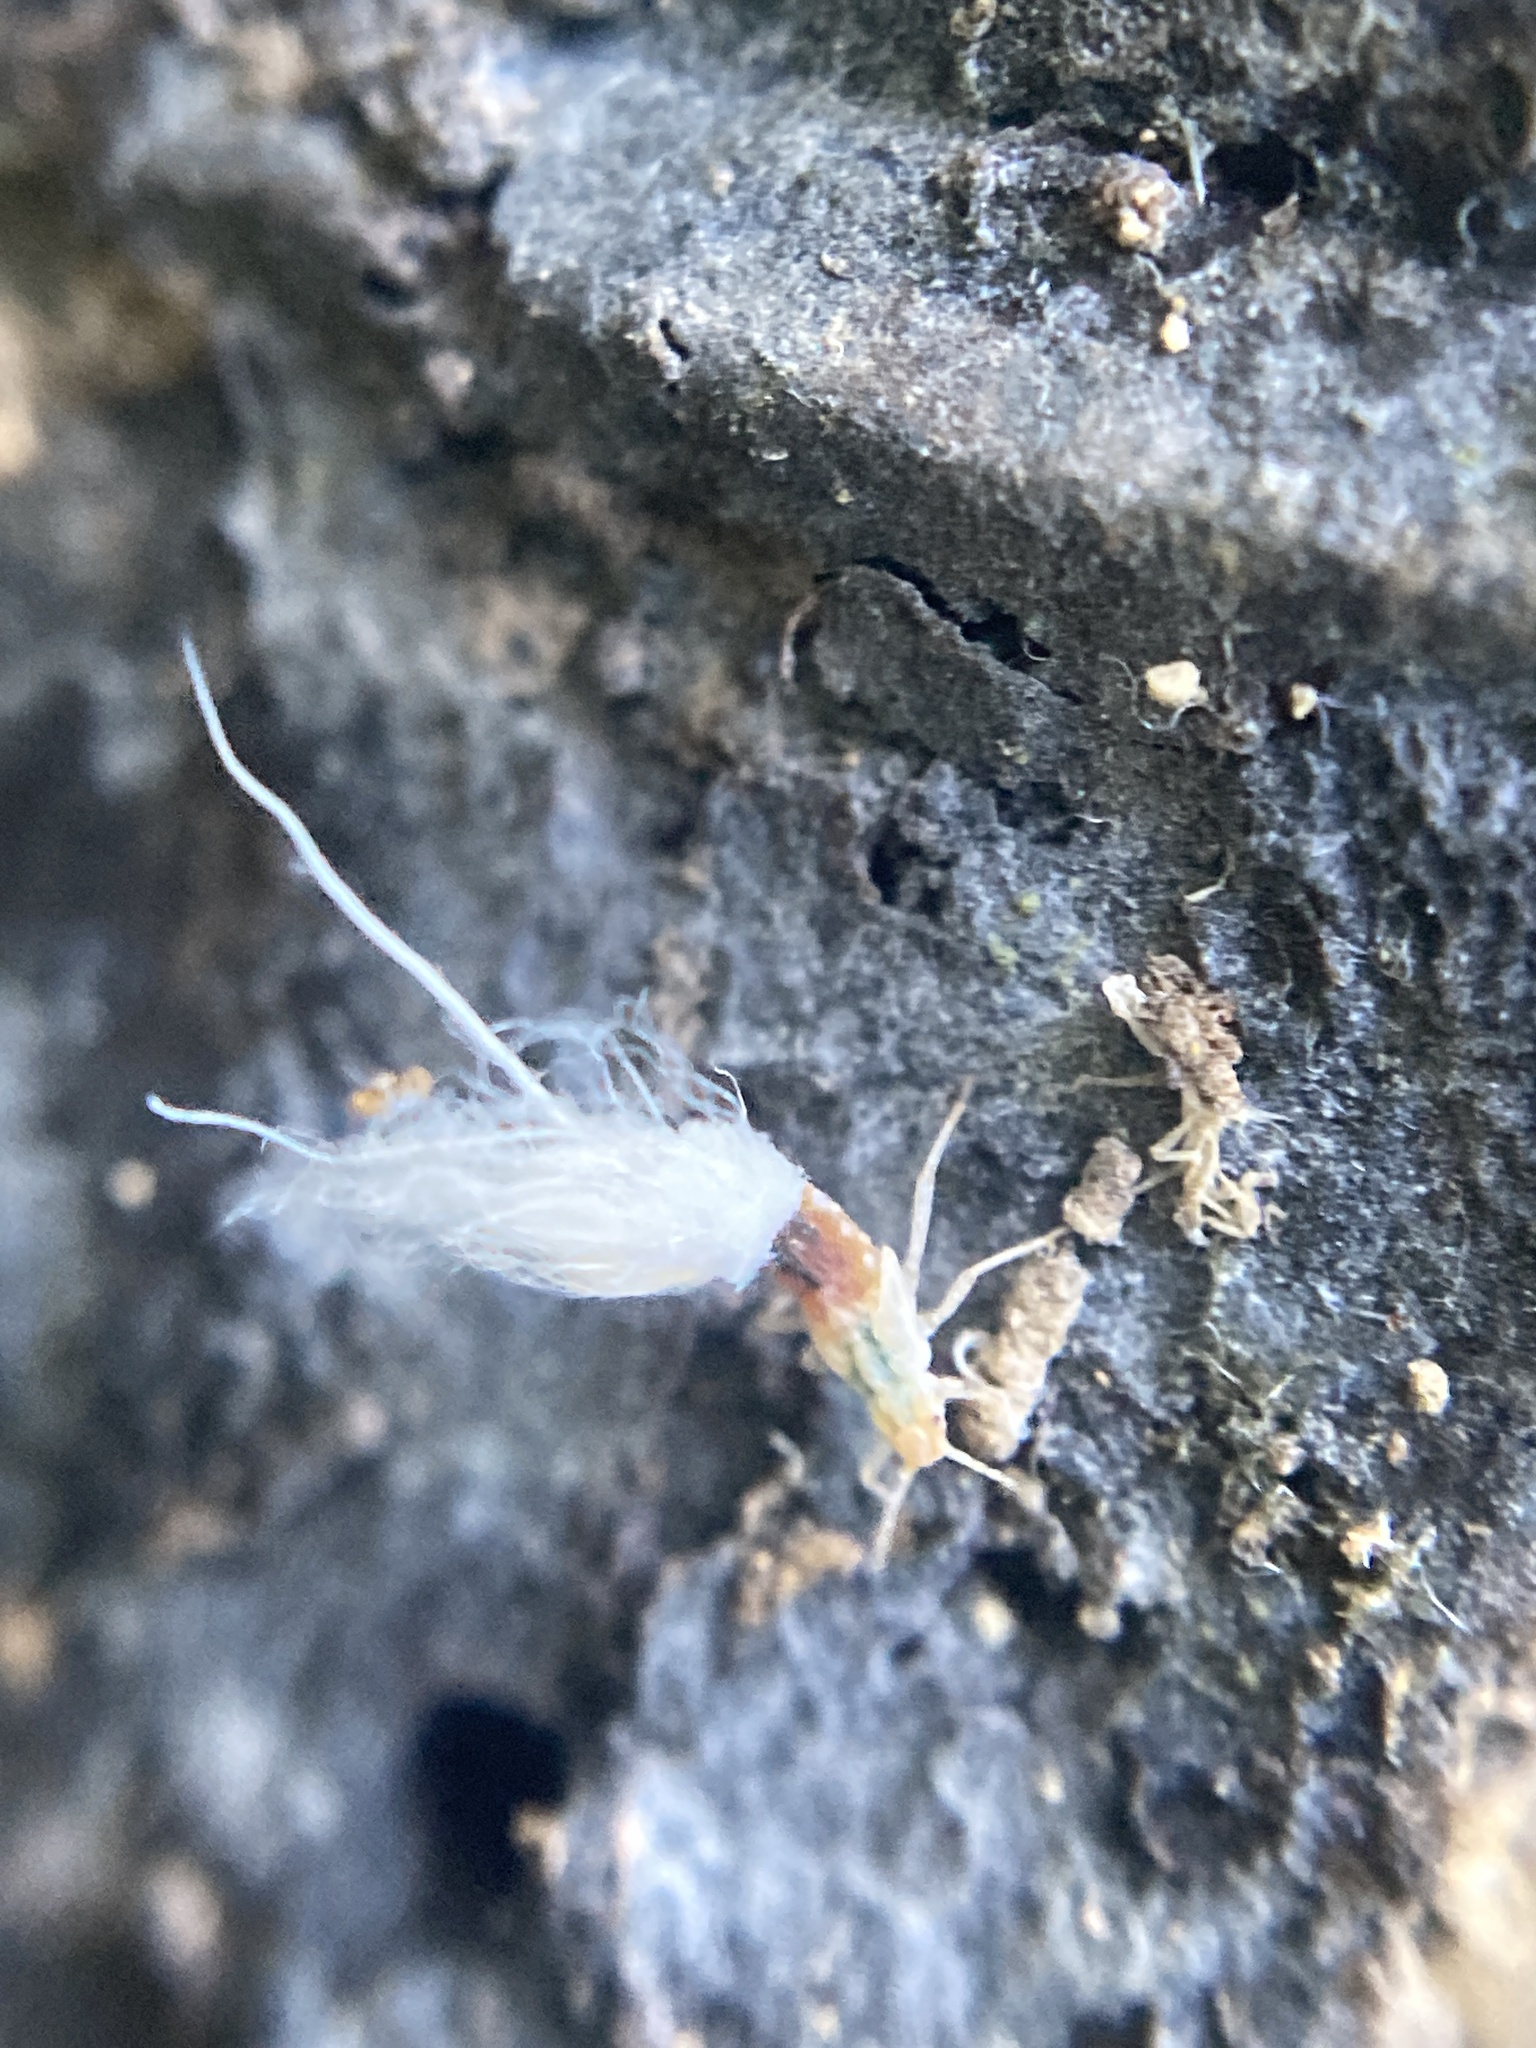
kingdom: Animalia
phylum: Arthropoda
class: Insecta
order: Hemiptera
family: Aphididae
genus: Grylloprociphilus
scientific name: Grylloprociphilus imbricator
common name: Beech blight aphid
